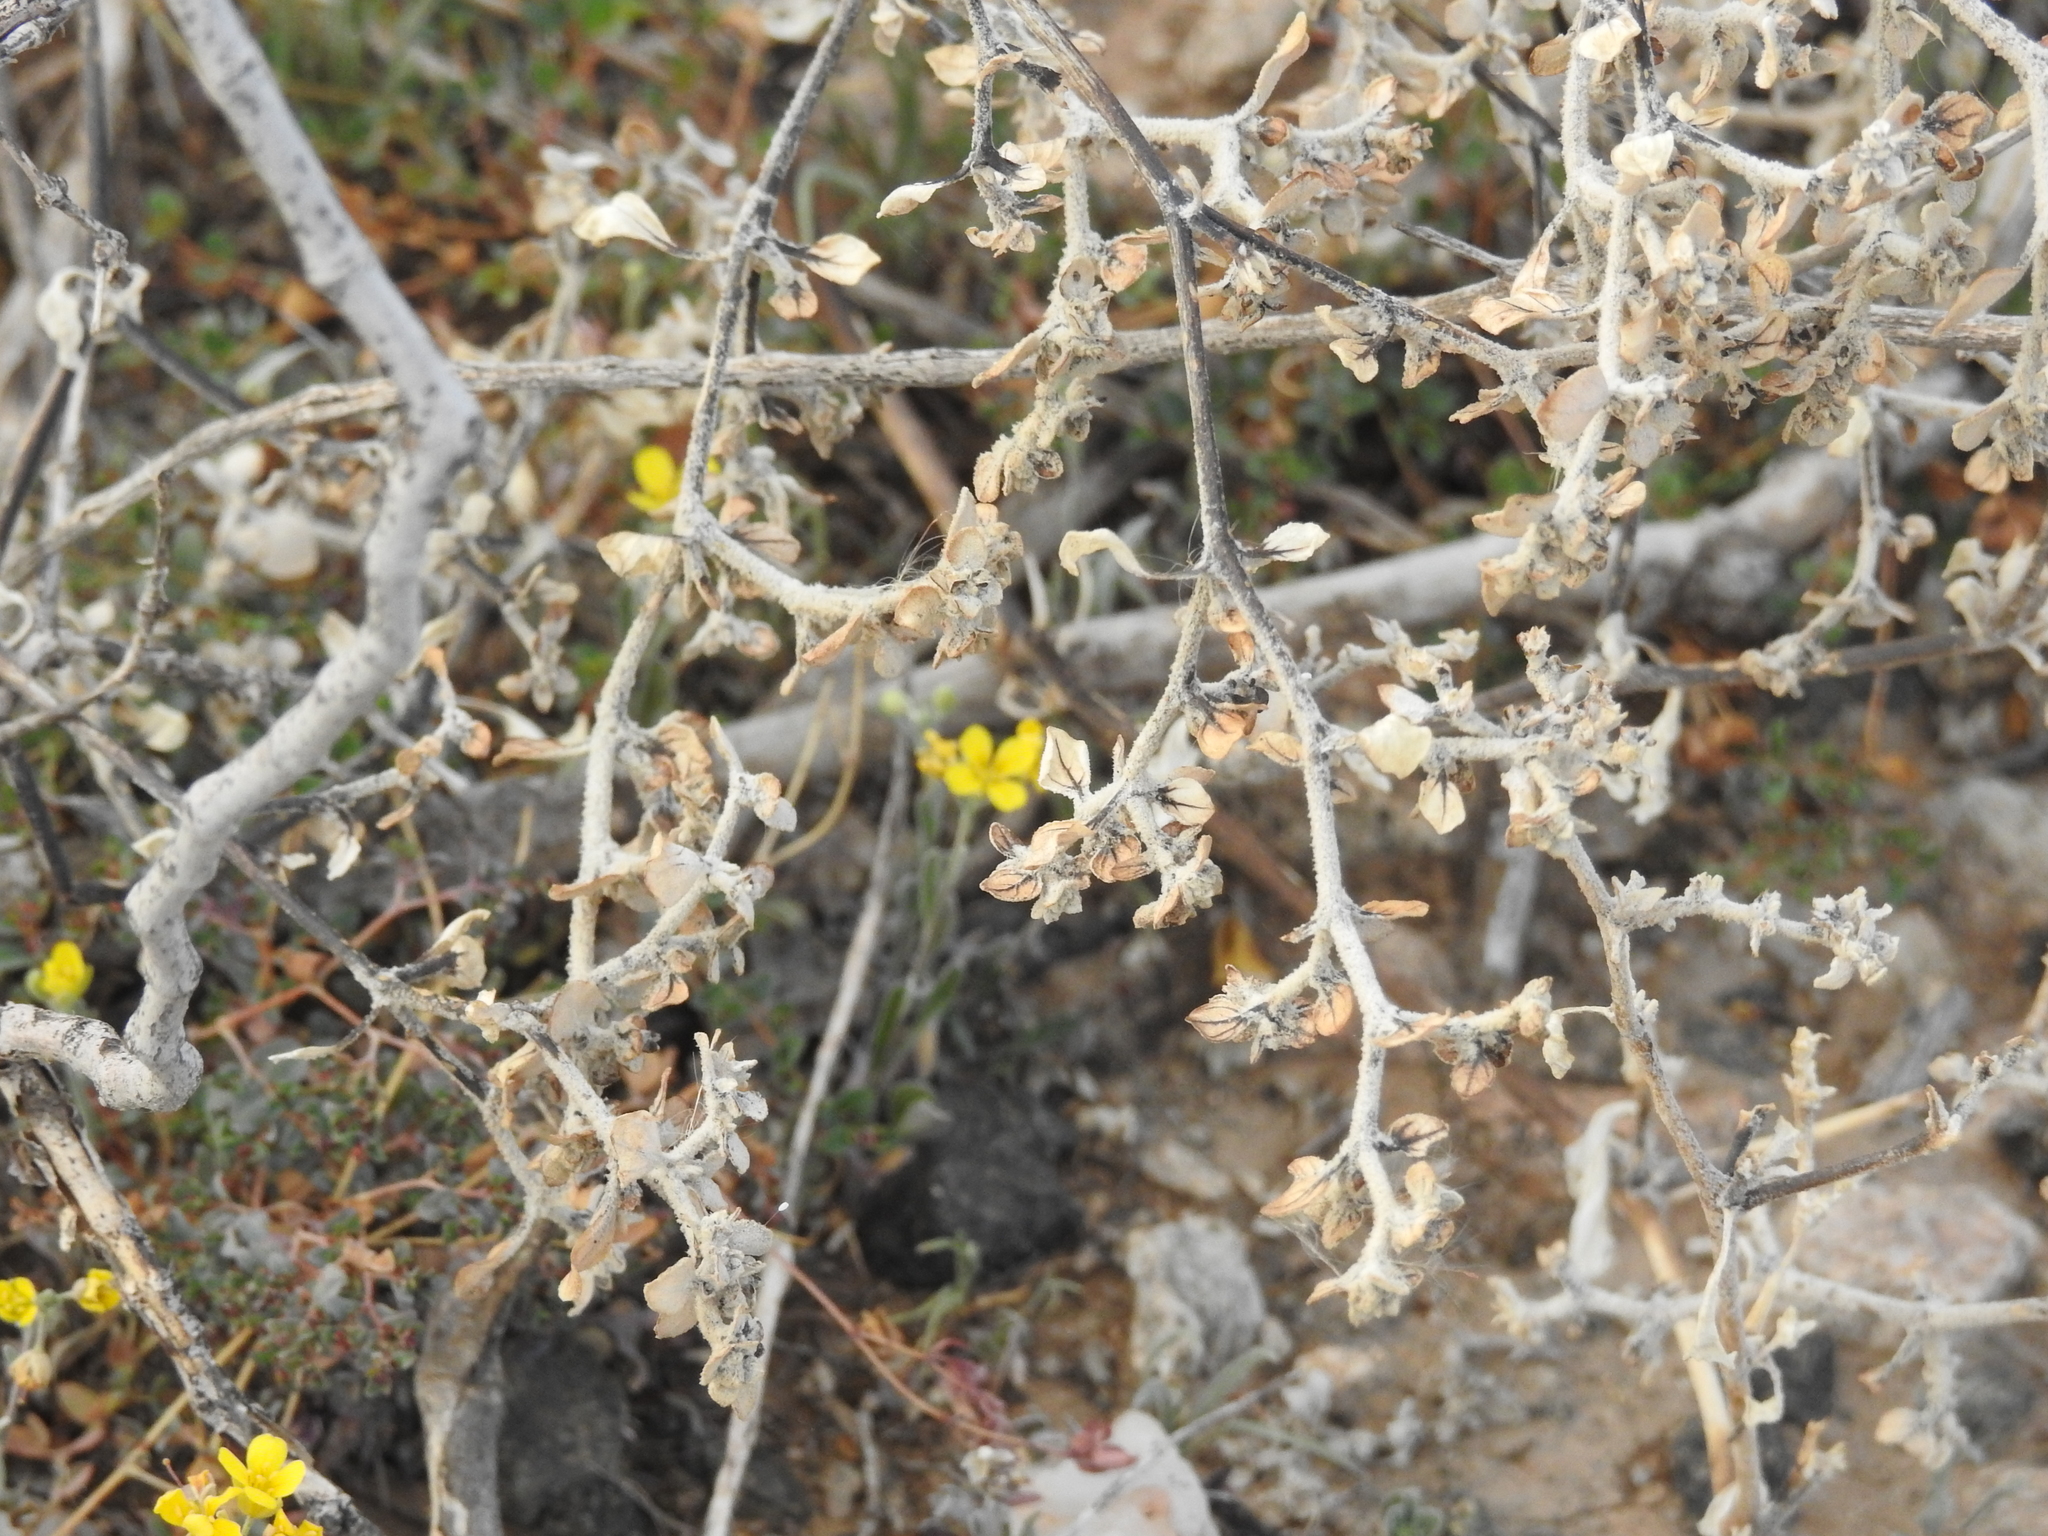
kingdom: Plantae
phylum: Tracheophyta
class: Magnoliopsida
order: Caryophyllales
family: Amaranthaceae
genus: Tidestromia
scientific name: Tidestromia lanuginosa
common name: Woolly tidestromia
